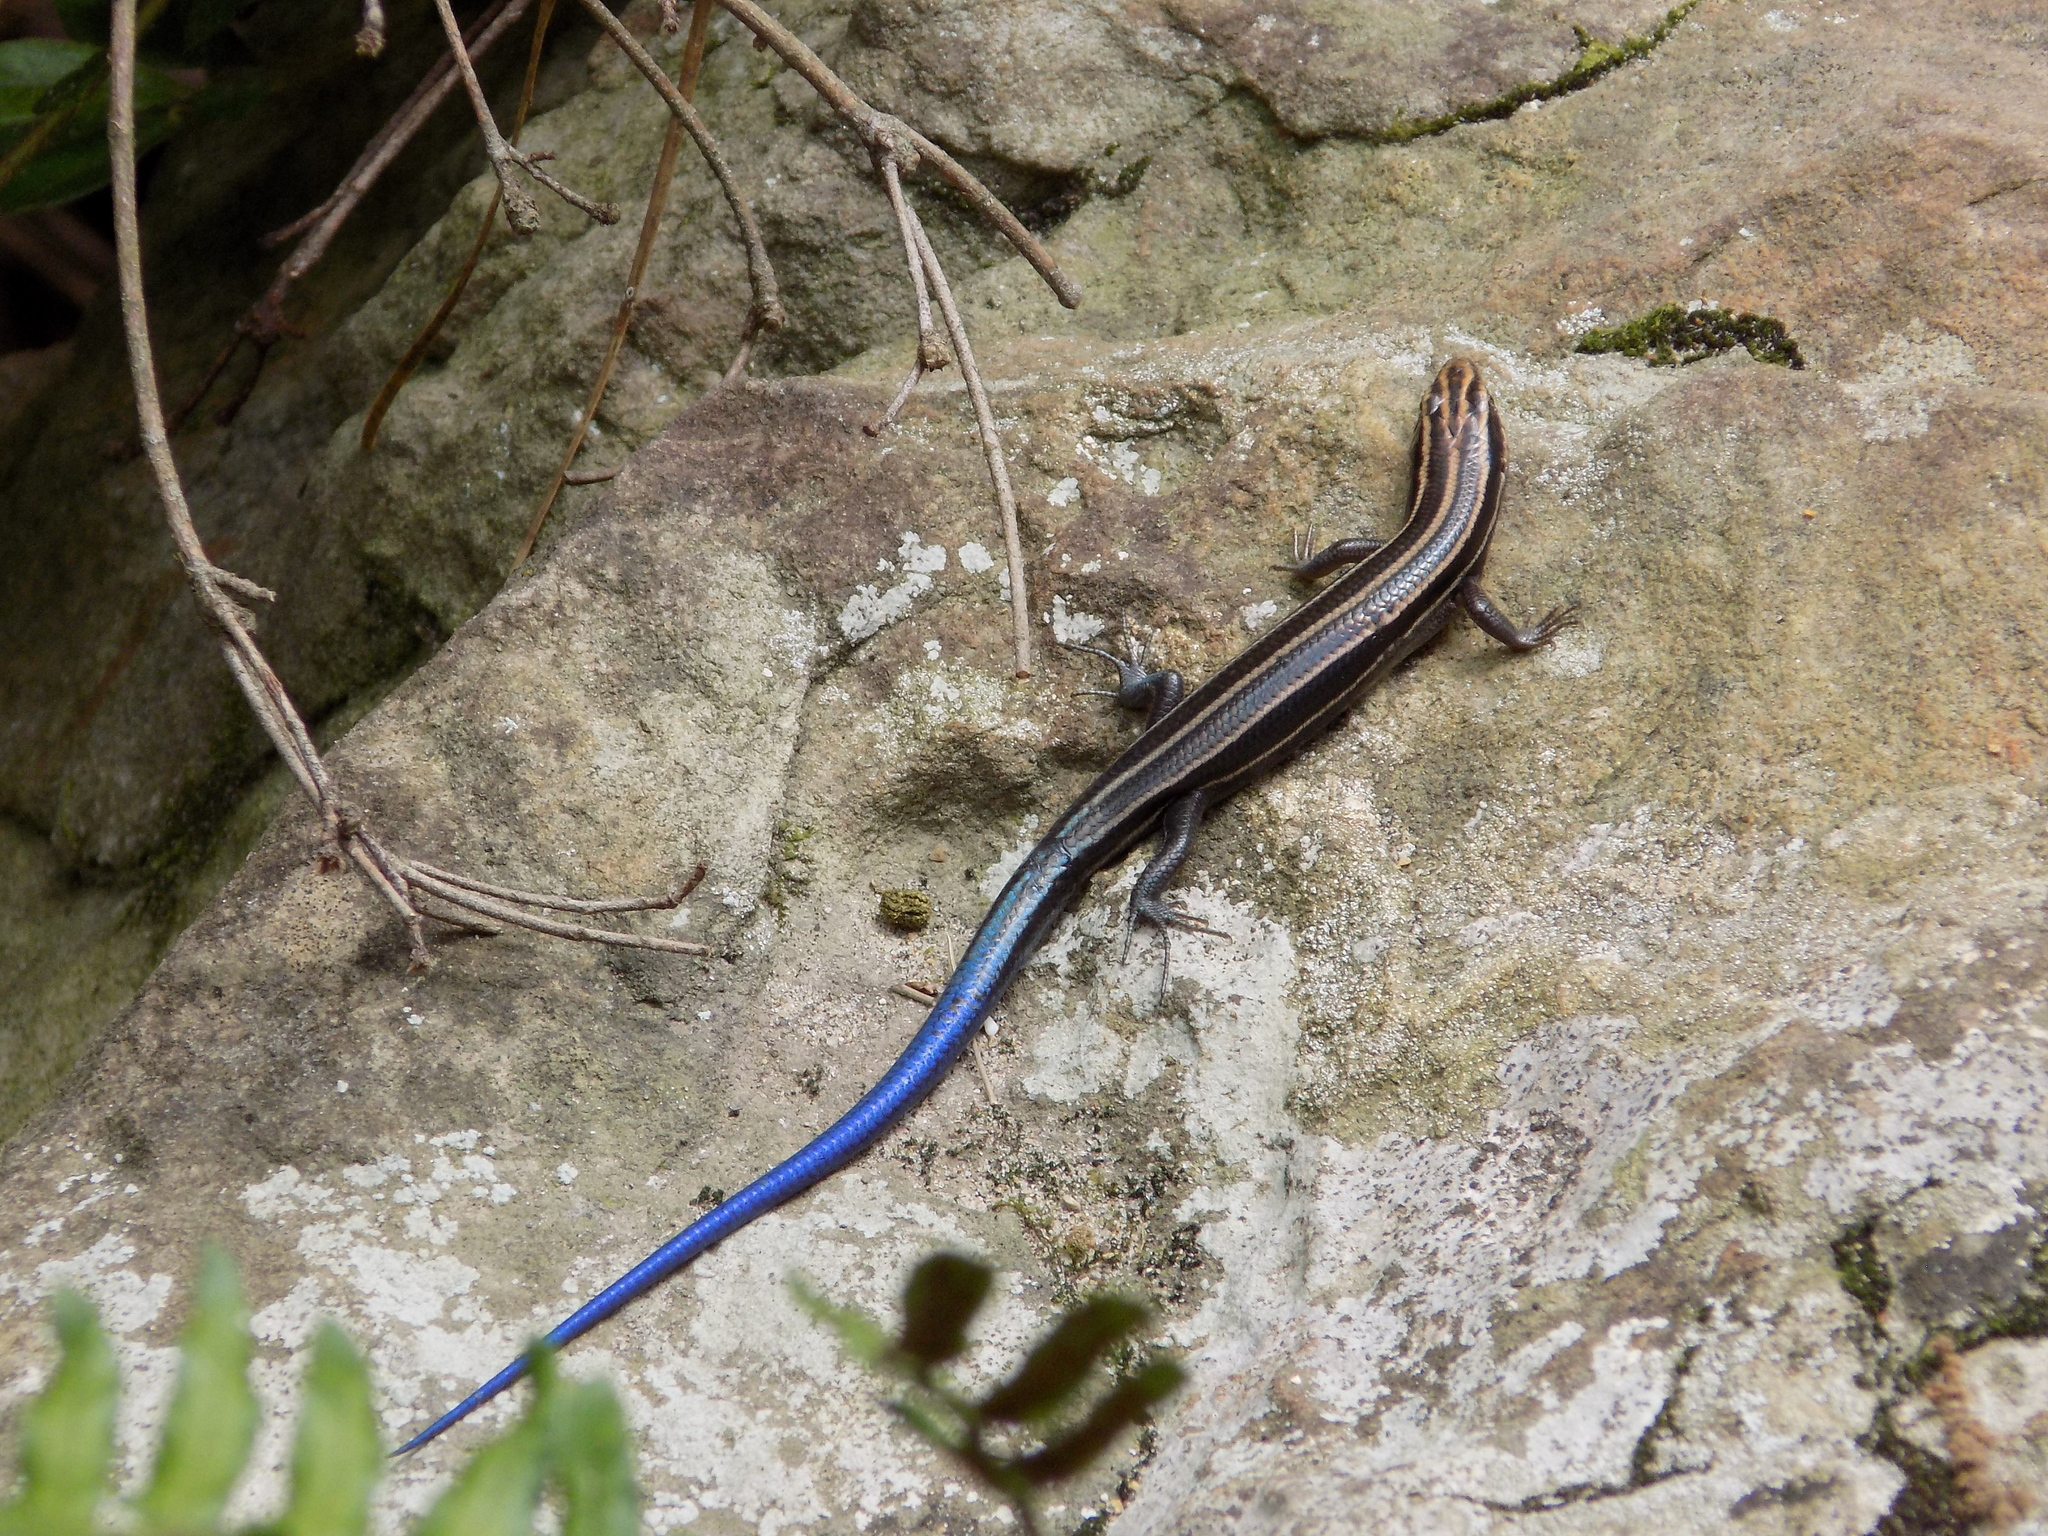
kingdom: Animalia
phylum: Chordata
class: Squamata
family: Scincidae
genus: Plestiodon
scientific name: Plestiodon fasciatus
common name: Five-lined skink
